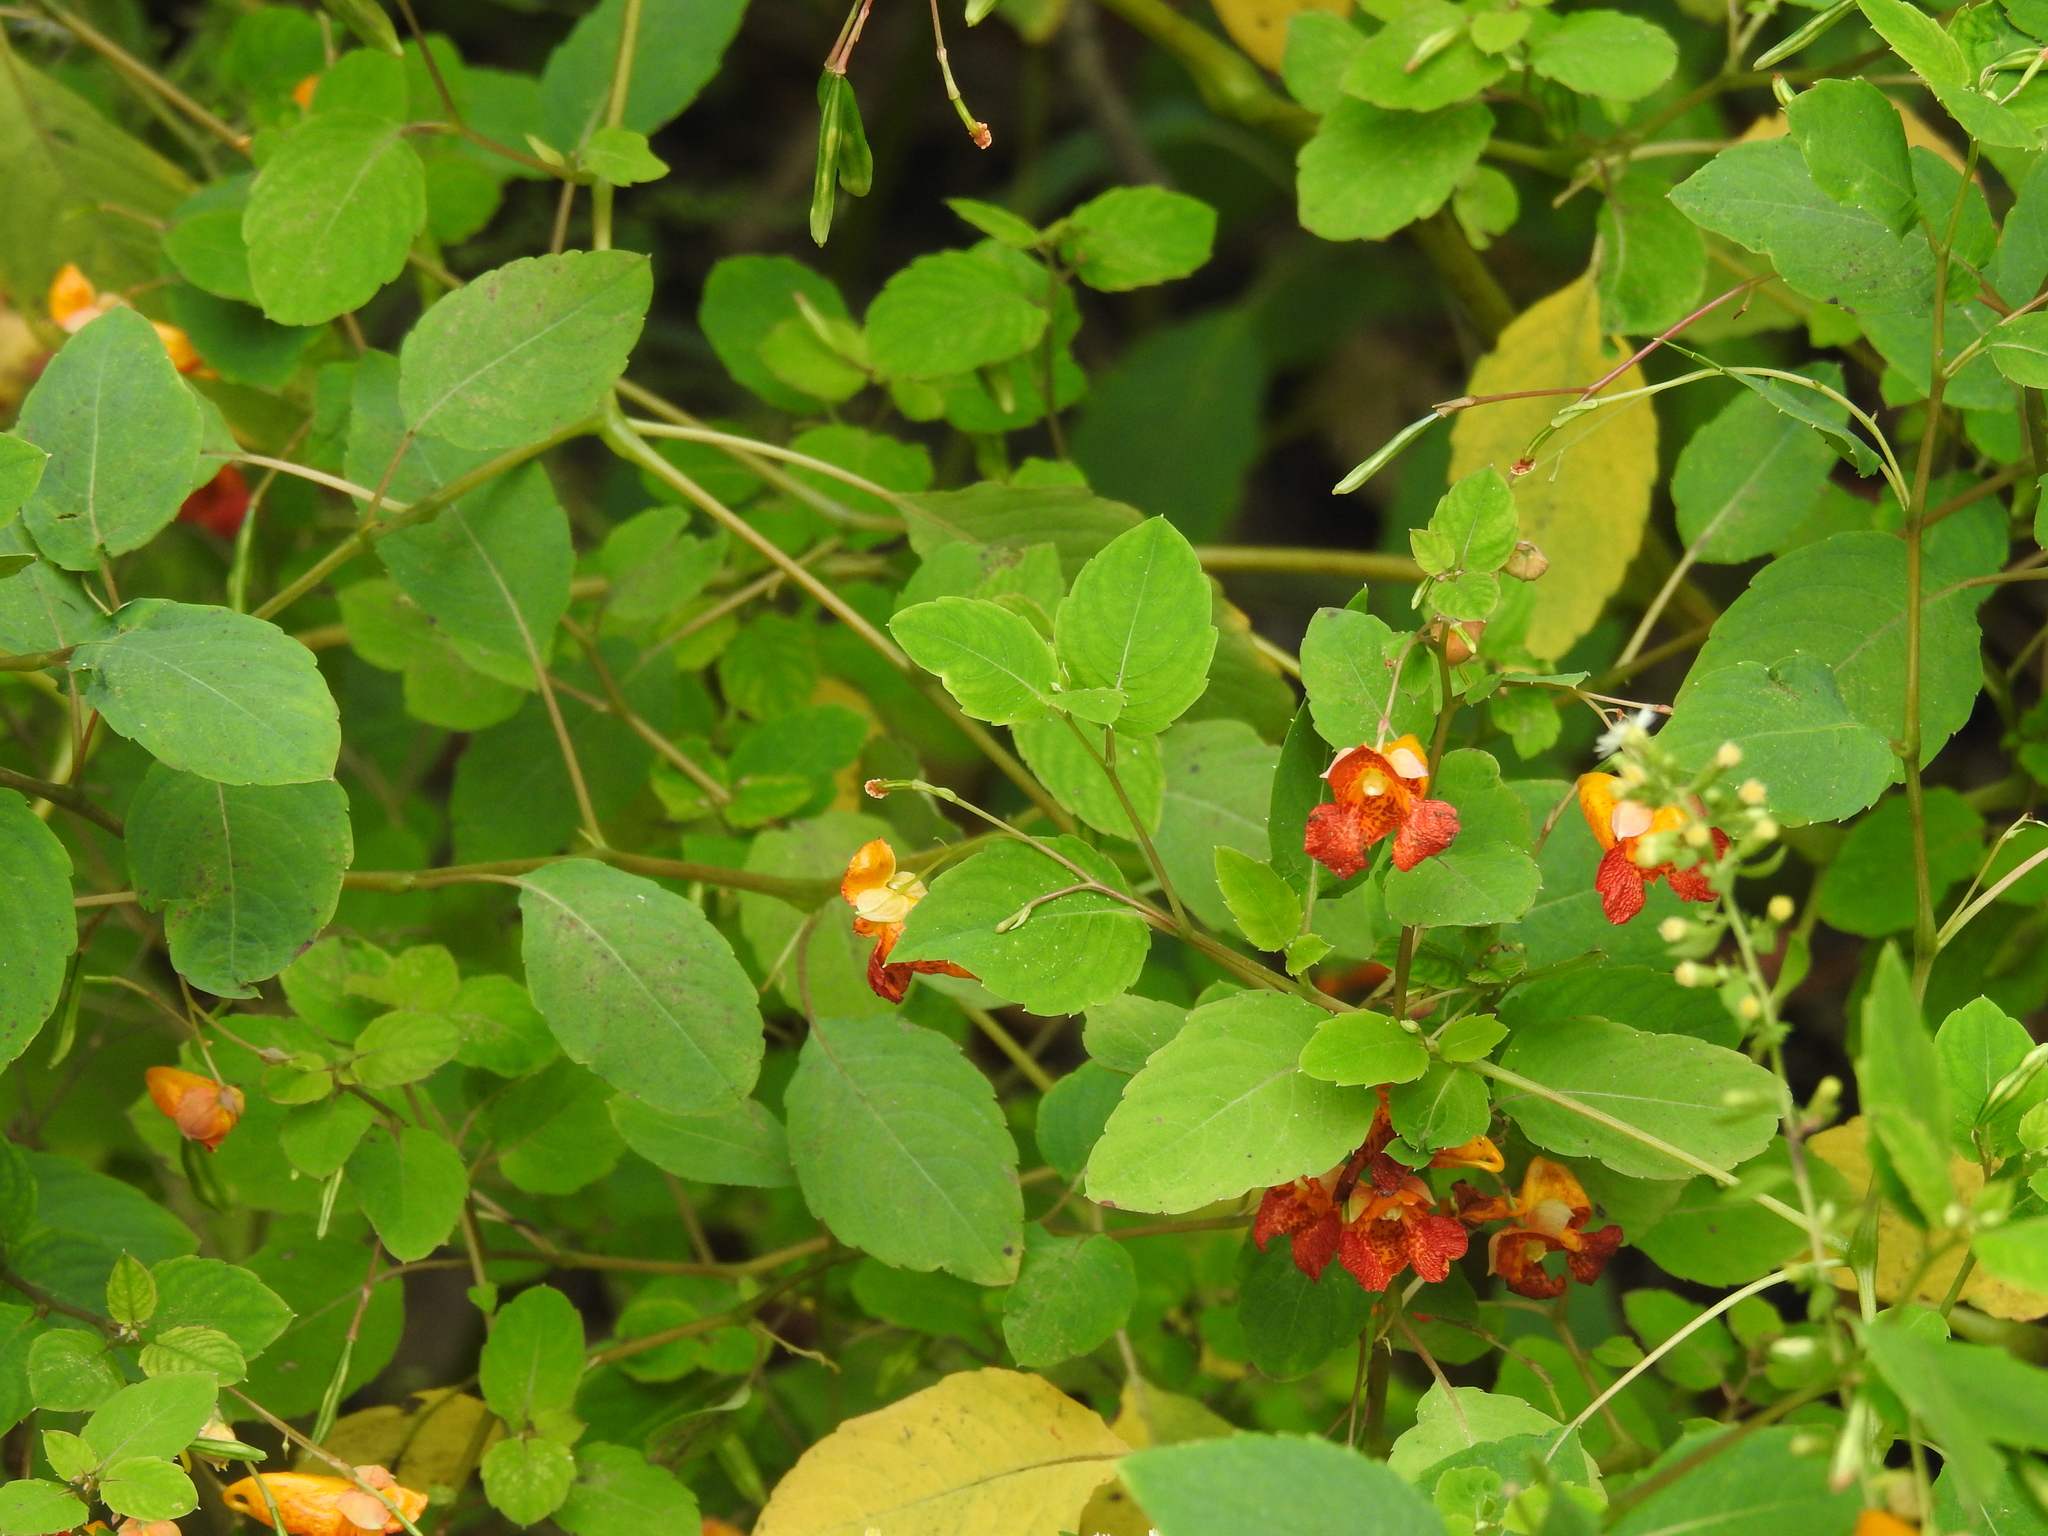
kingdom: Plantae
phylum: Tracheophyta
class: Magnoliopsida
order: Ericales
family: Balsaminaceae
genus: Impatiens
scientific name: Impatiens capensis
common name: Orange balsam
